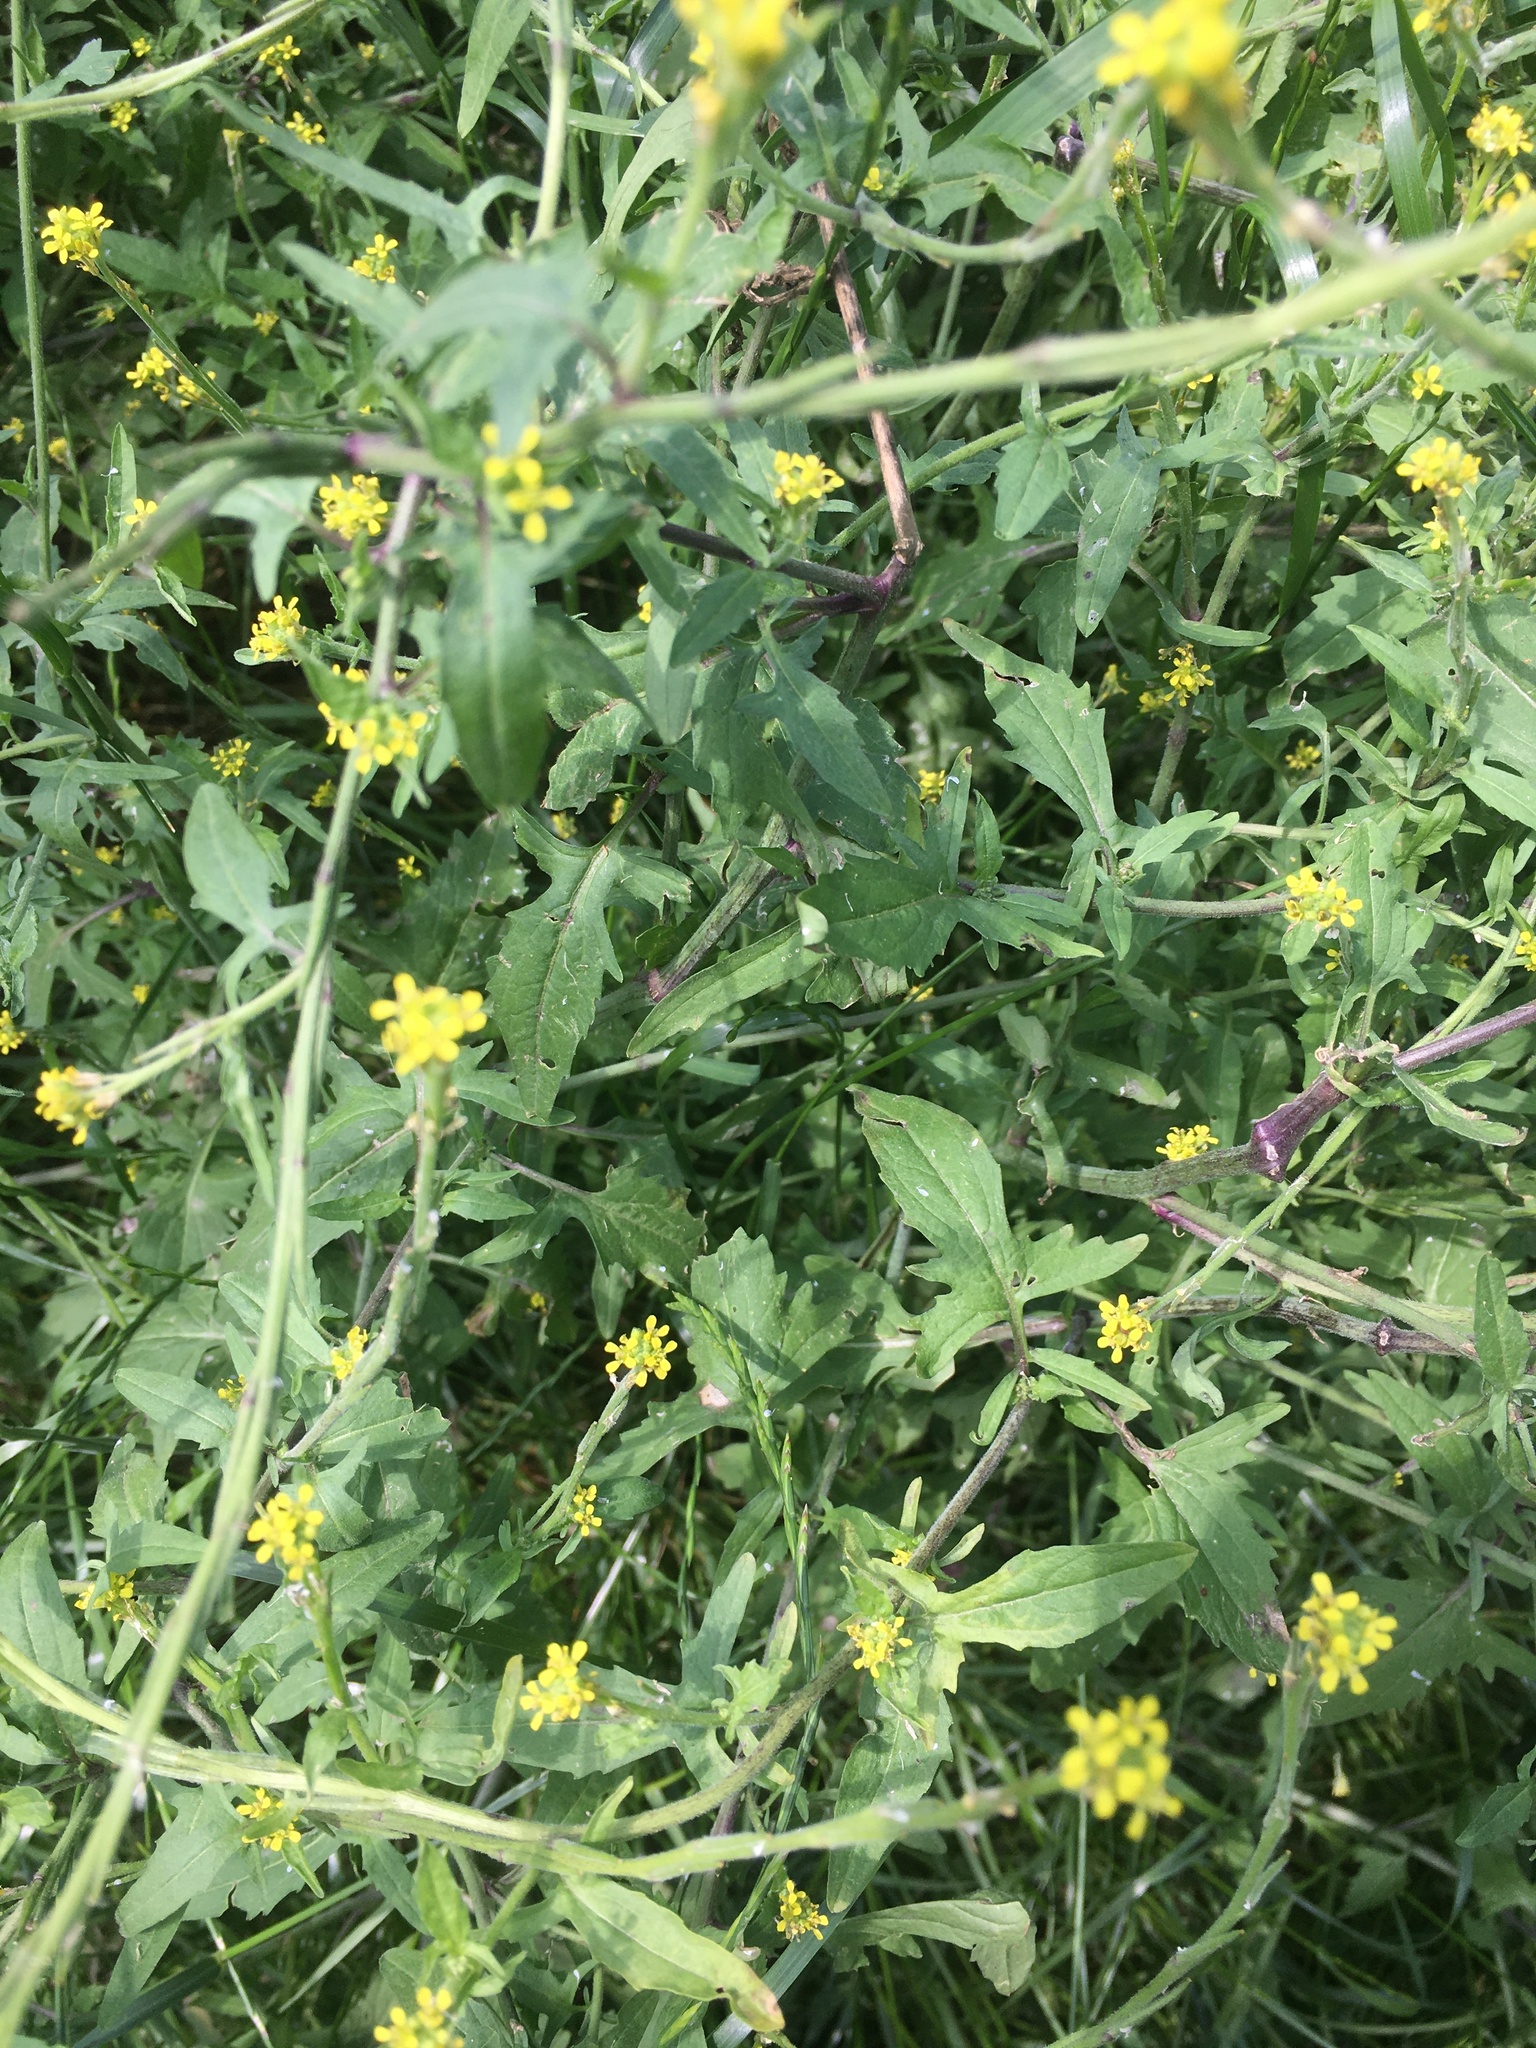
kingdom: Plantae
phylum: Tracheophyta
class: Magnoliopsida
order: Brassicales
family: Brassicaceae
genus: Sisymbrium
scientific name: Sisymbrium officinale
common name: Hedge mustard
